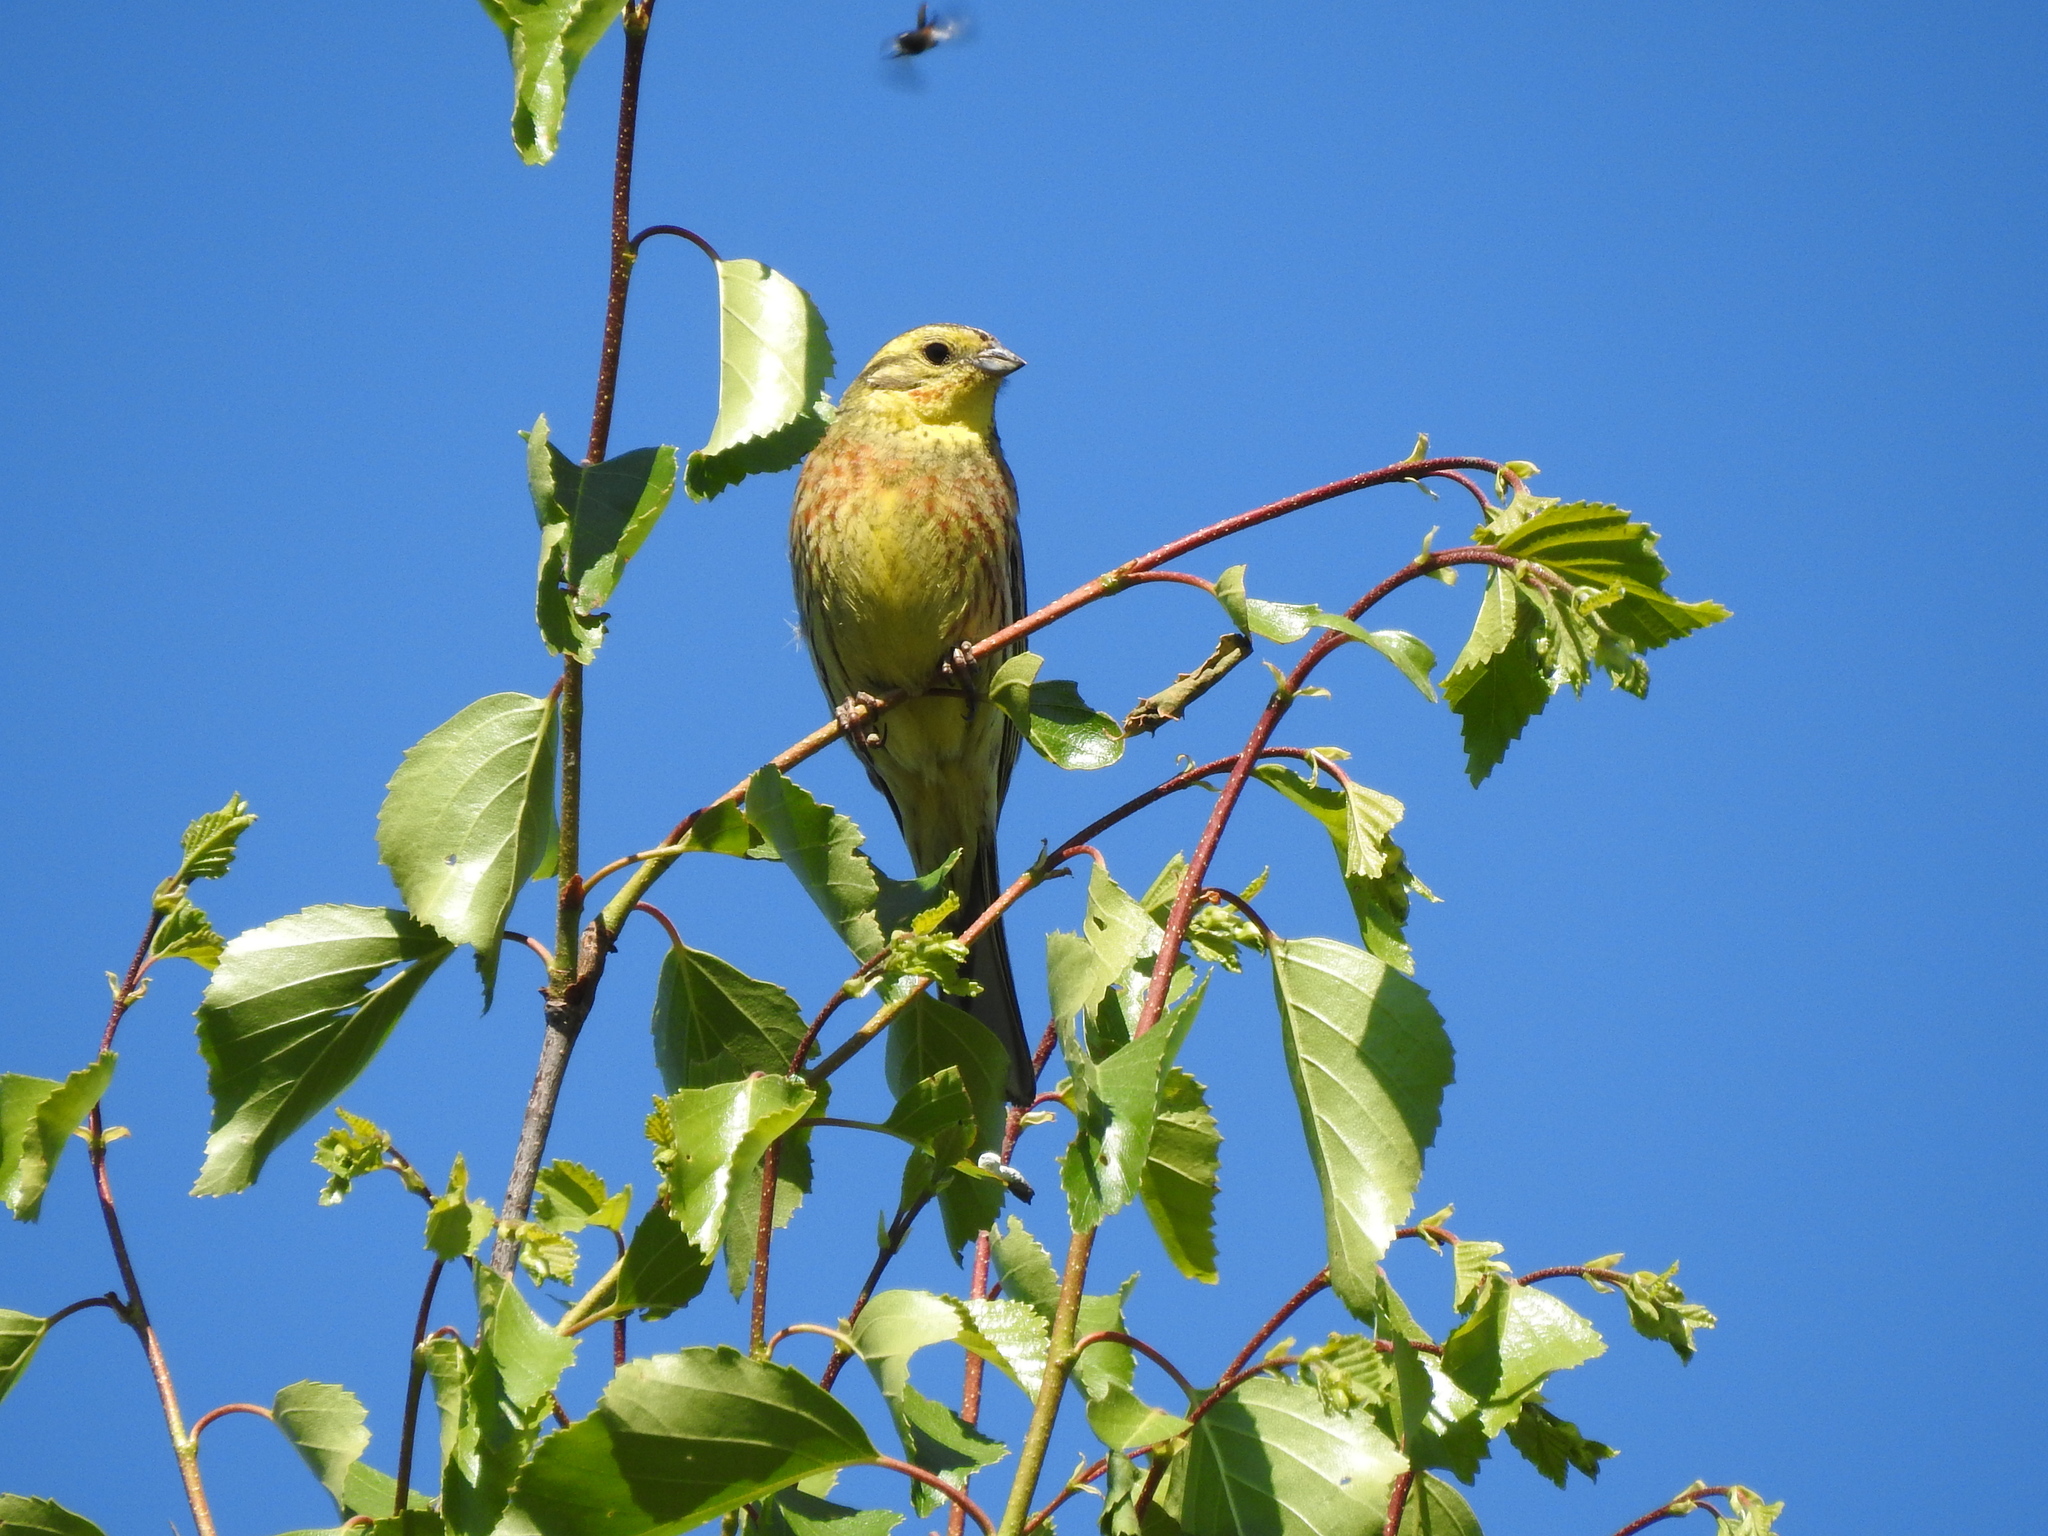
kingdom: Animalia
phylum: Chordata
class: Aves
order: Passeriformes
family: Emberizidae
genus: Emberiza
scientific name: Emberiza citrinella
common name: Yellowhammer
